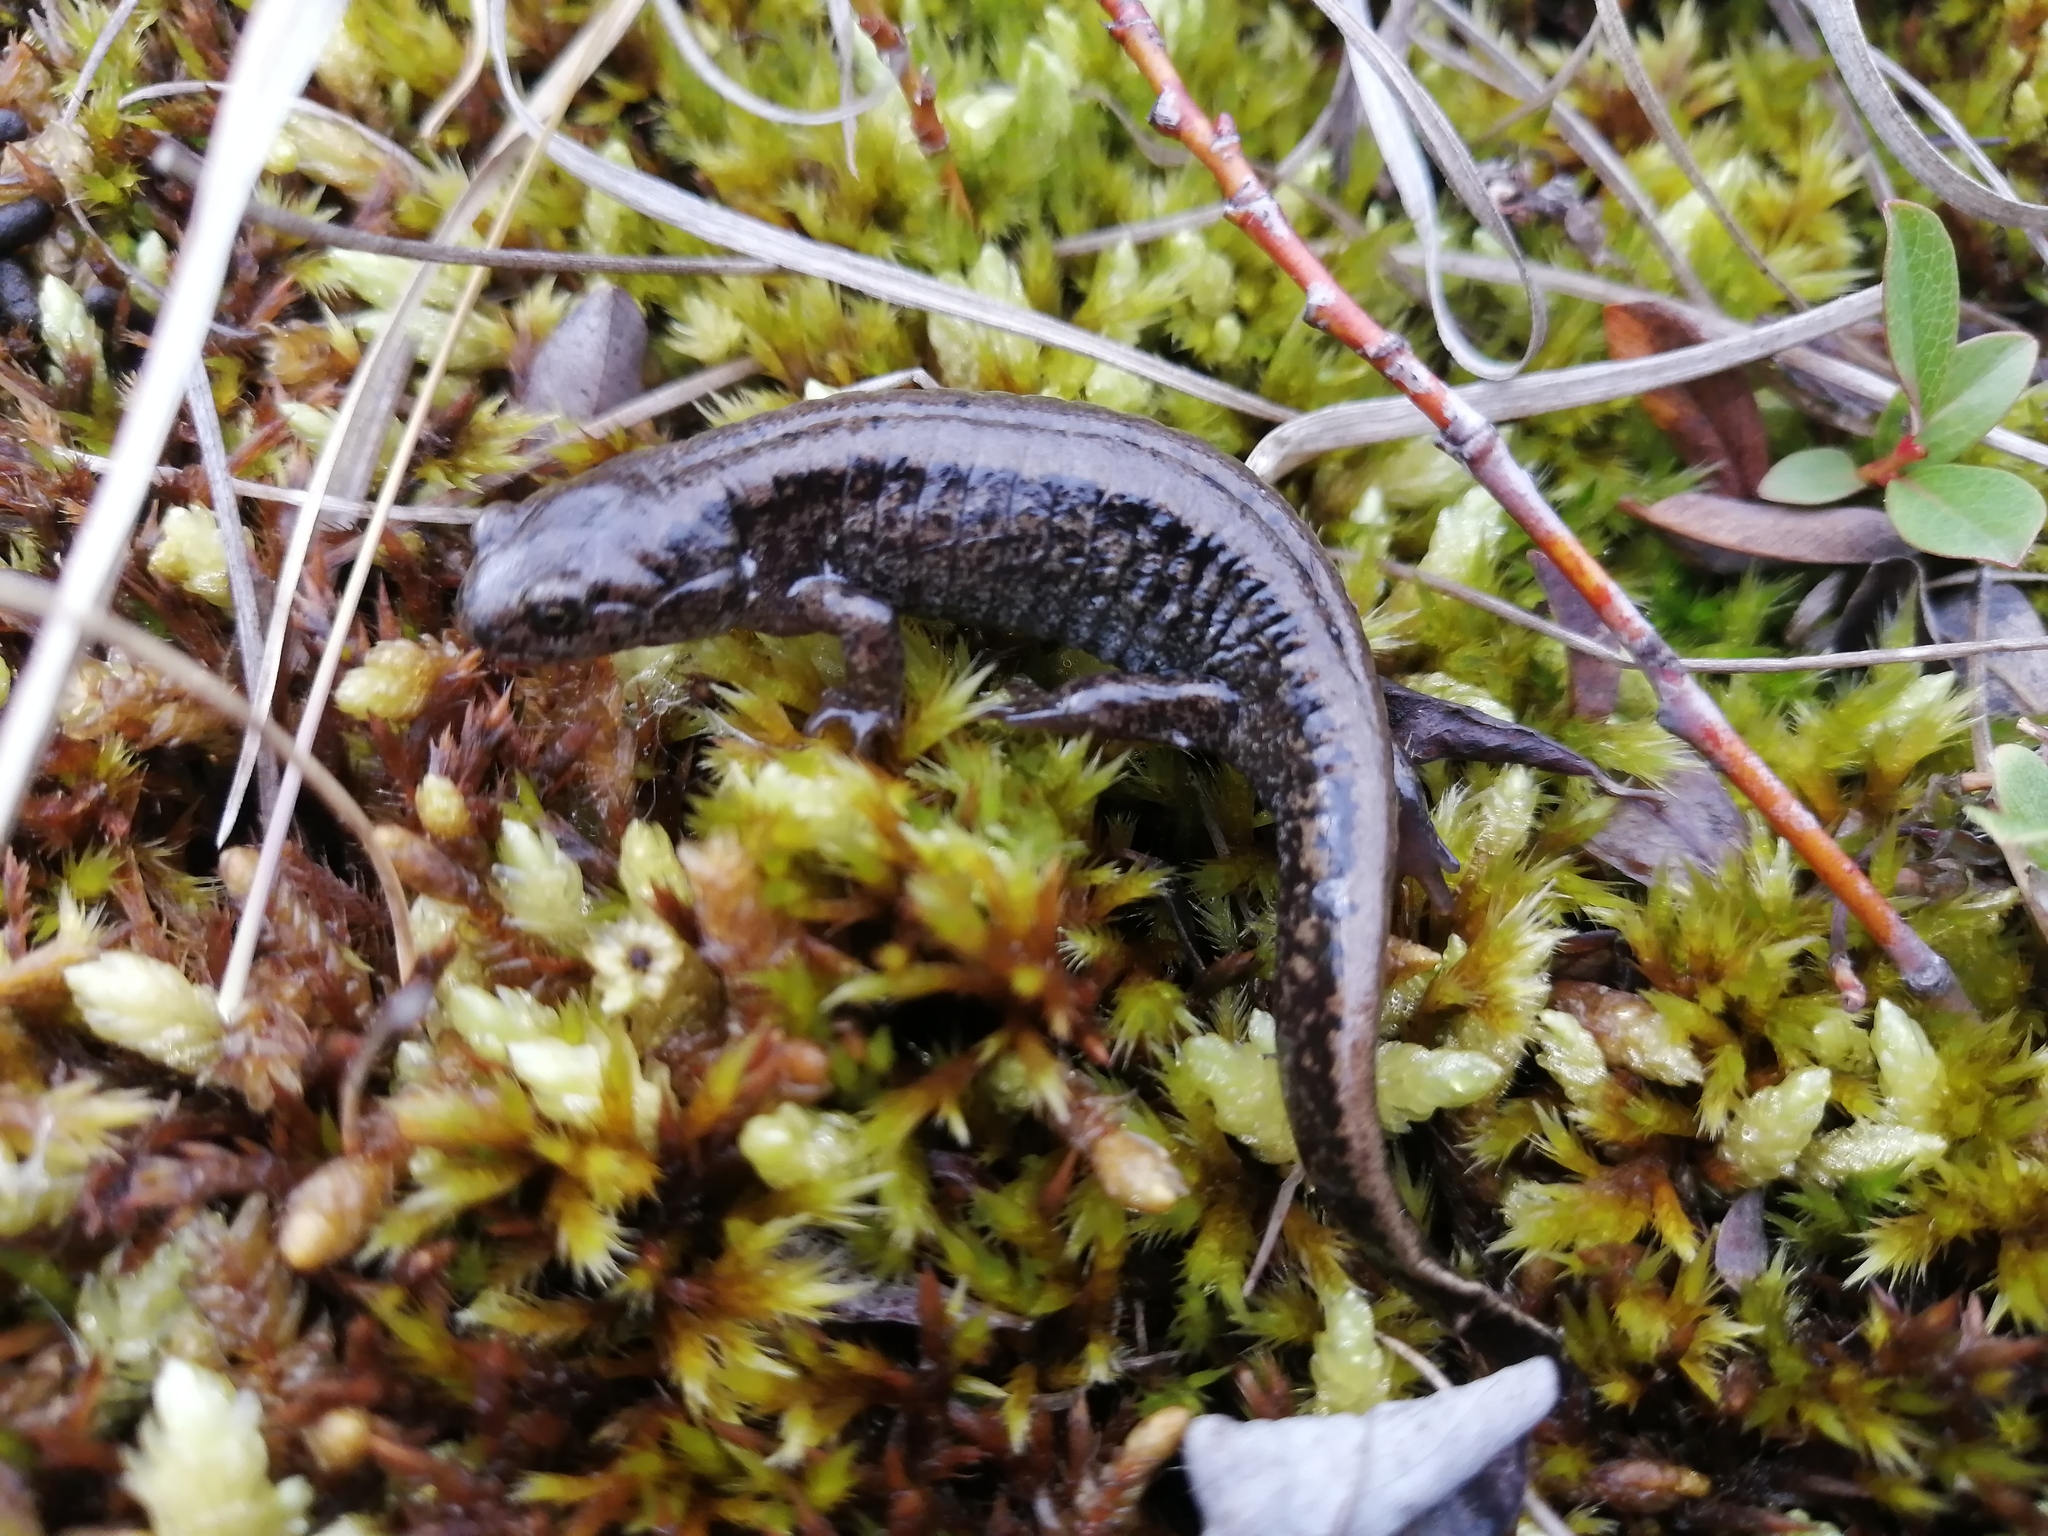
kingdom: Animalia
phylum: Chordata
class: Amphibia
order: Caudata
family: Hynobiidae
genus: Salamandrella
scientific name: Salamandrella keyserlingii
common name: Dybowski's salamander
